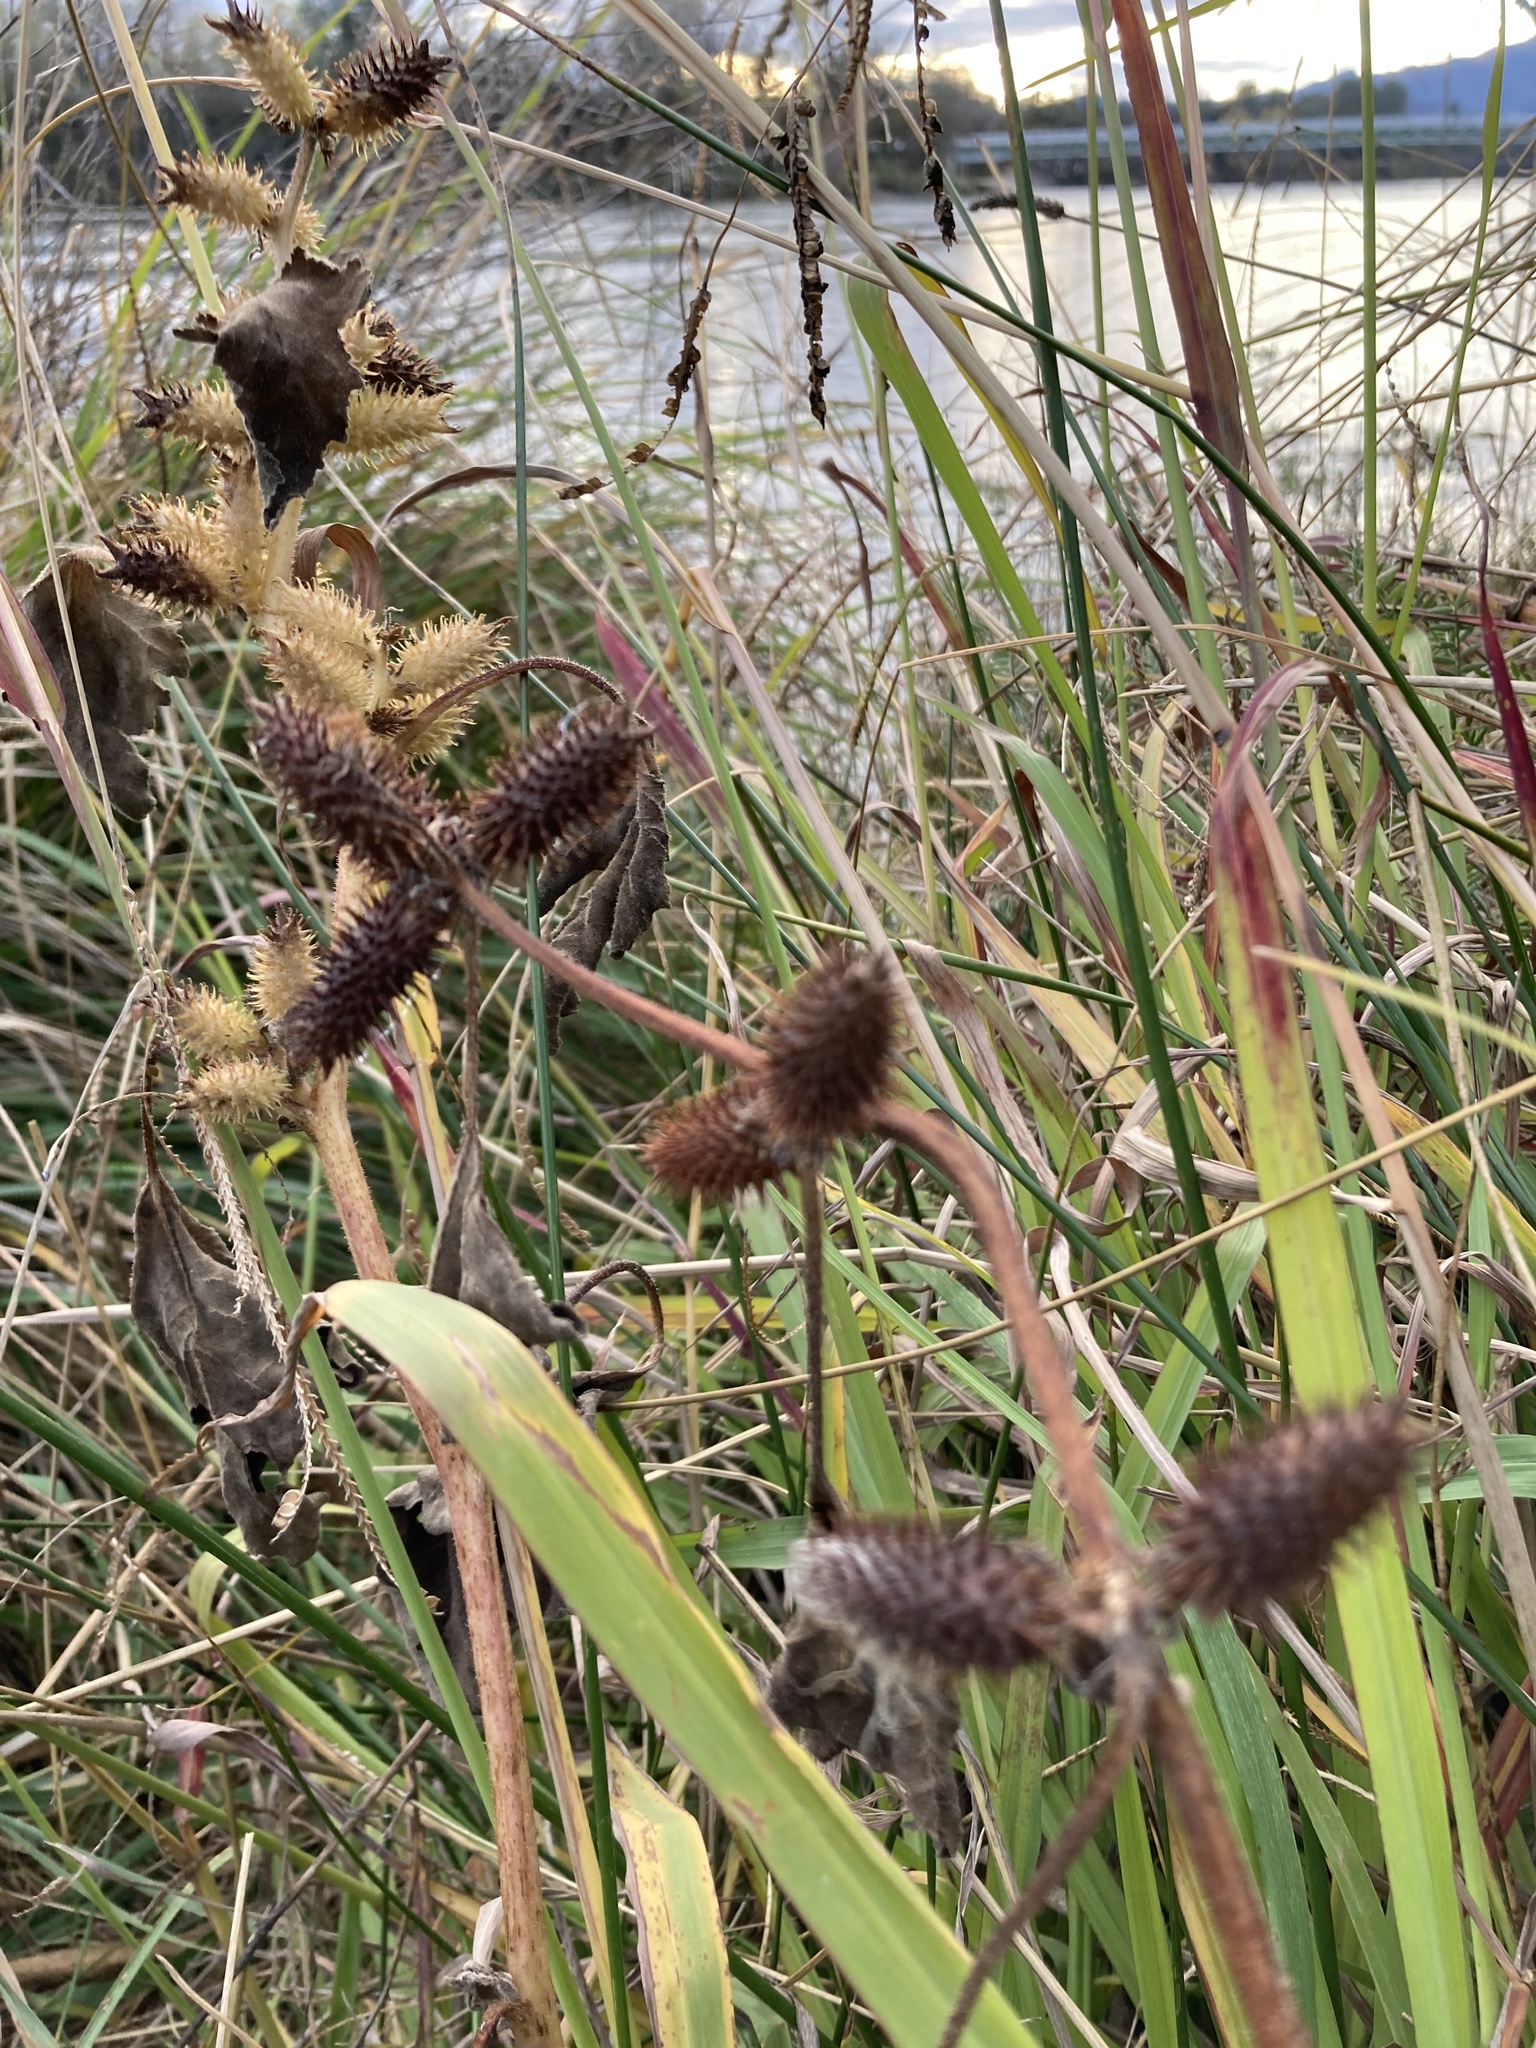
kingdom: Plantae
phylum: Tracheophyta
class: Magnoliopsida
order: Asterales
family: Asteraceae
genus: Xanthium
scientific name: Xanthium strumarium
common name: Rough cocklebur
